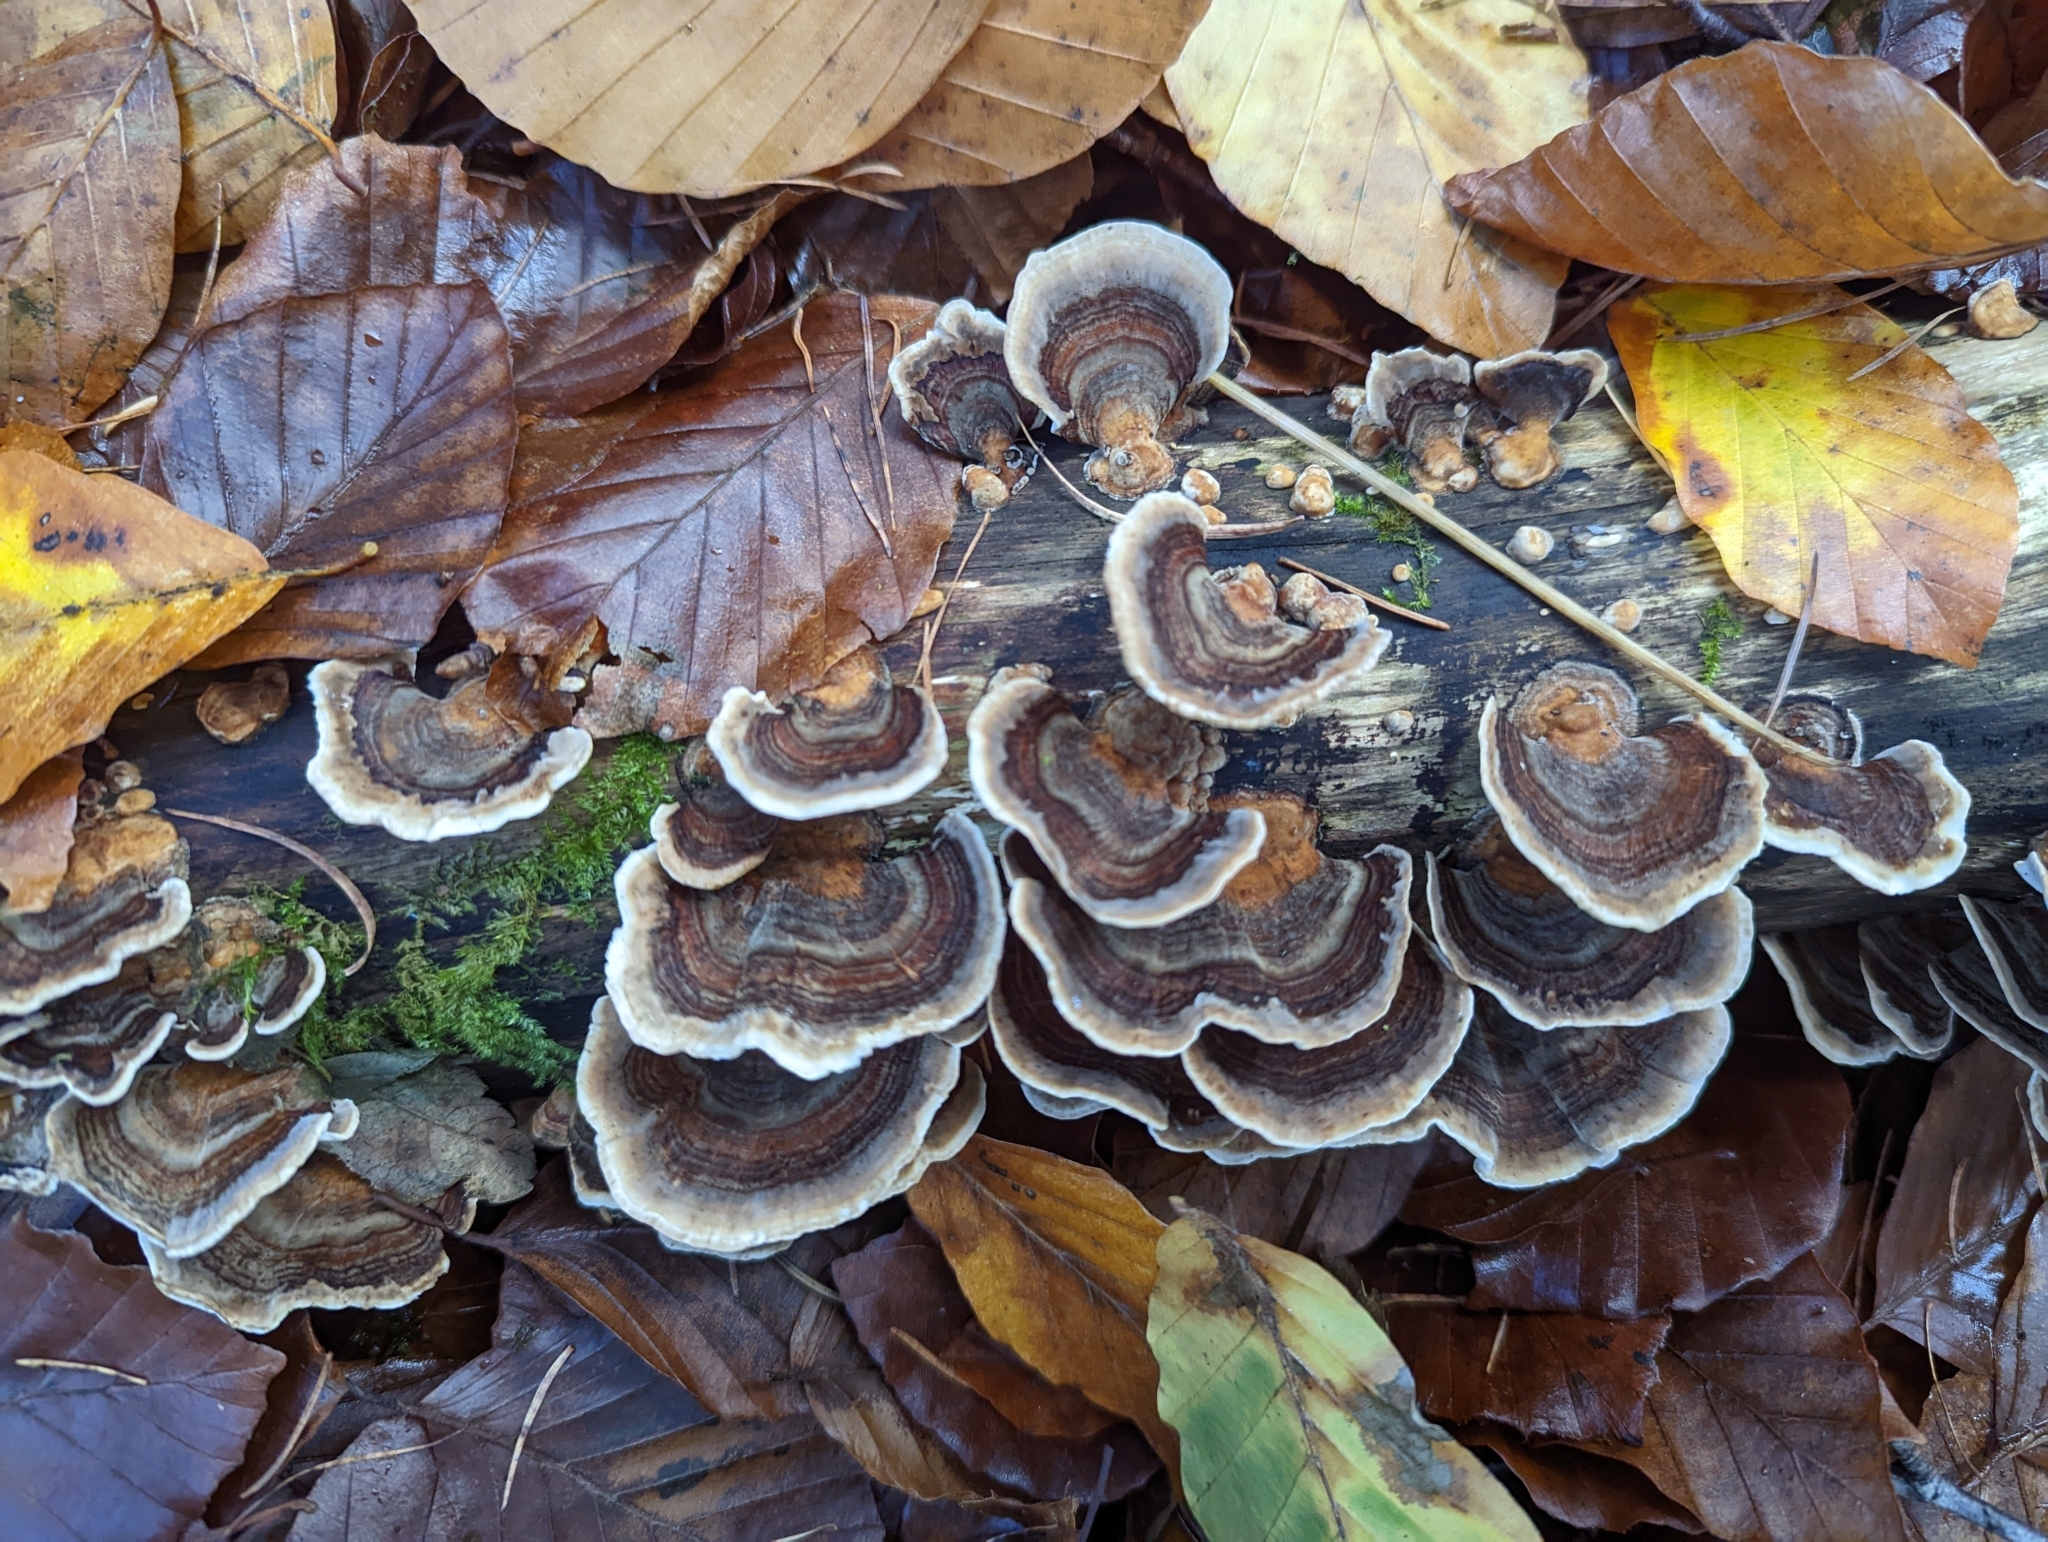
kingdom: Fungi
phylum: Basidiomycota
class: Agaricomycetes
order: Polyporales
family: Polyporaceae
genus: Trametes
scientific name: Trametes versicolor
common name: Turkeytail
